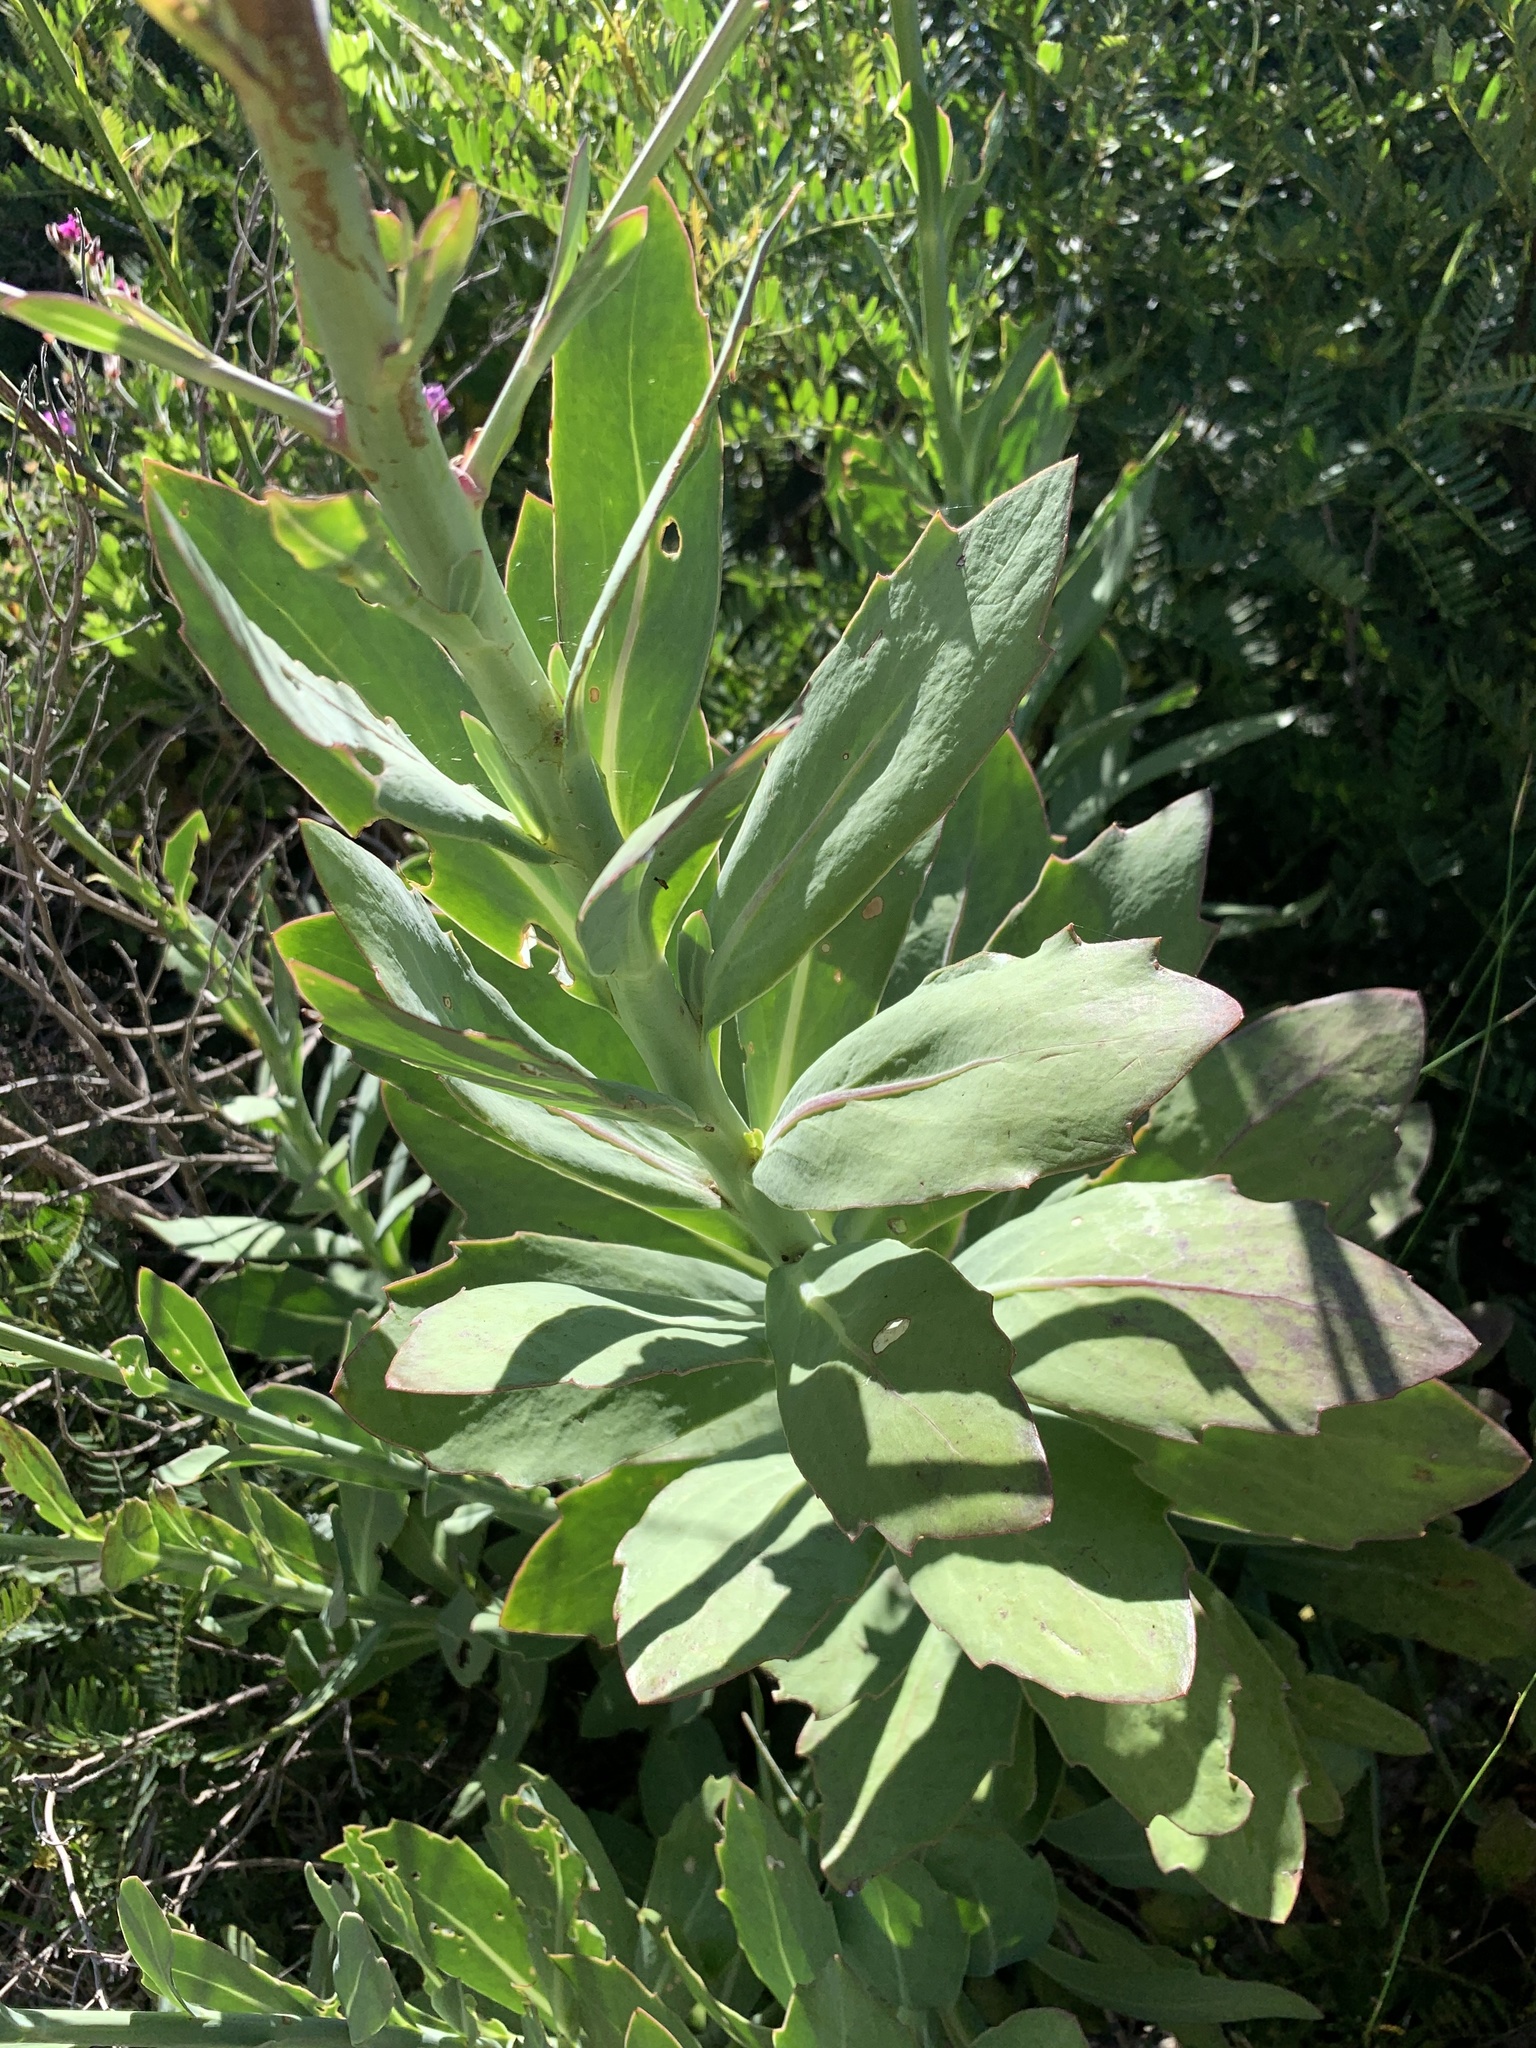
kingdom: Plantae
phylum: Tracheophyta
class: Magnoliopsida
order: Asterales
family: Asteraceae
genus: Othonna
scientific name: Othonna quinquedentata
